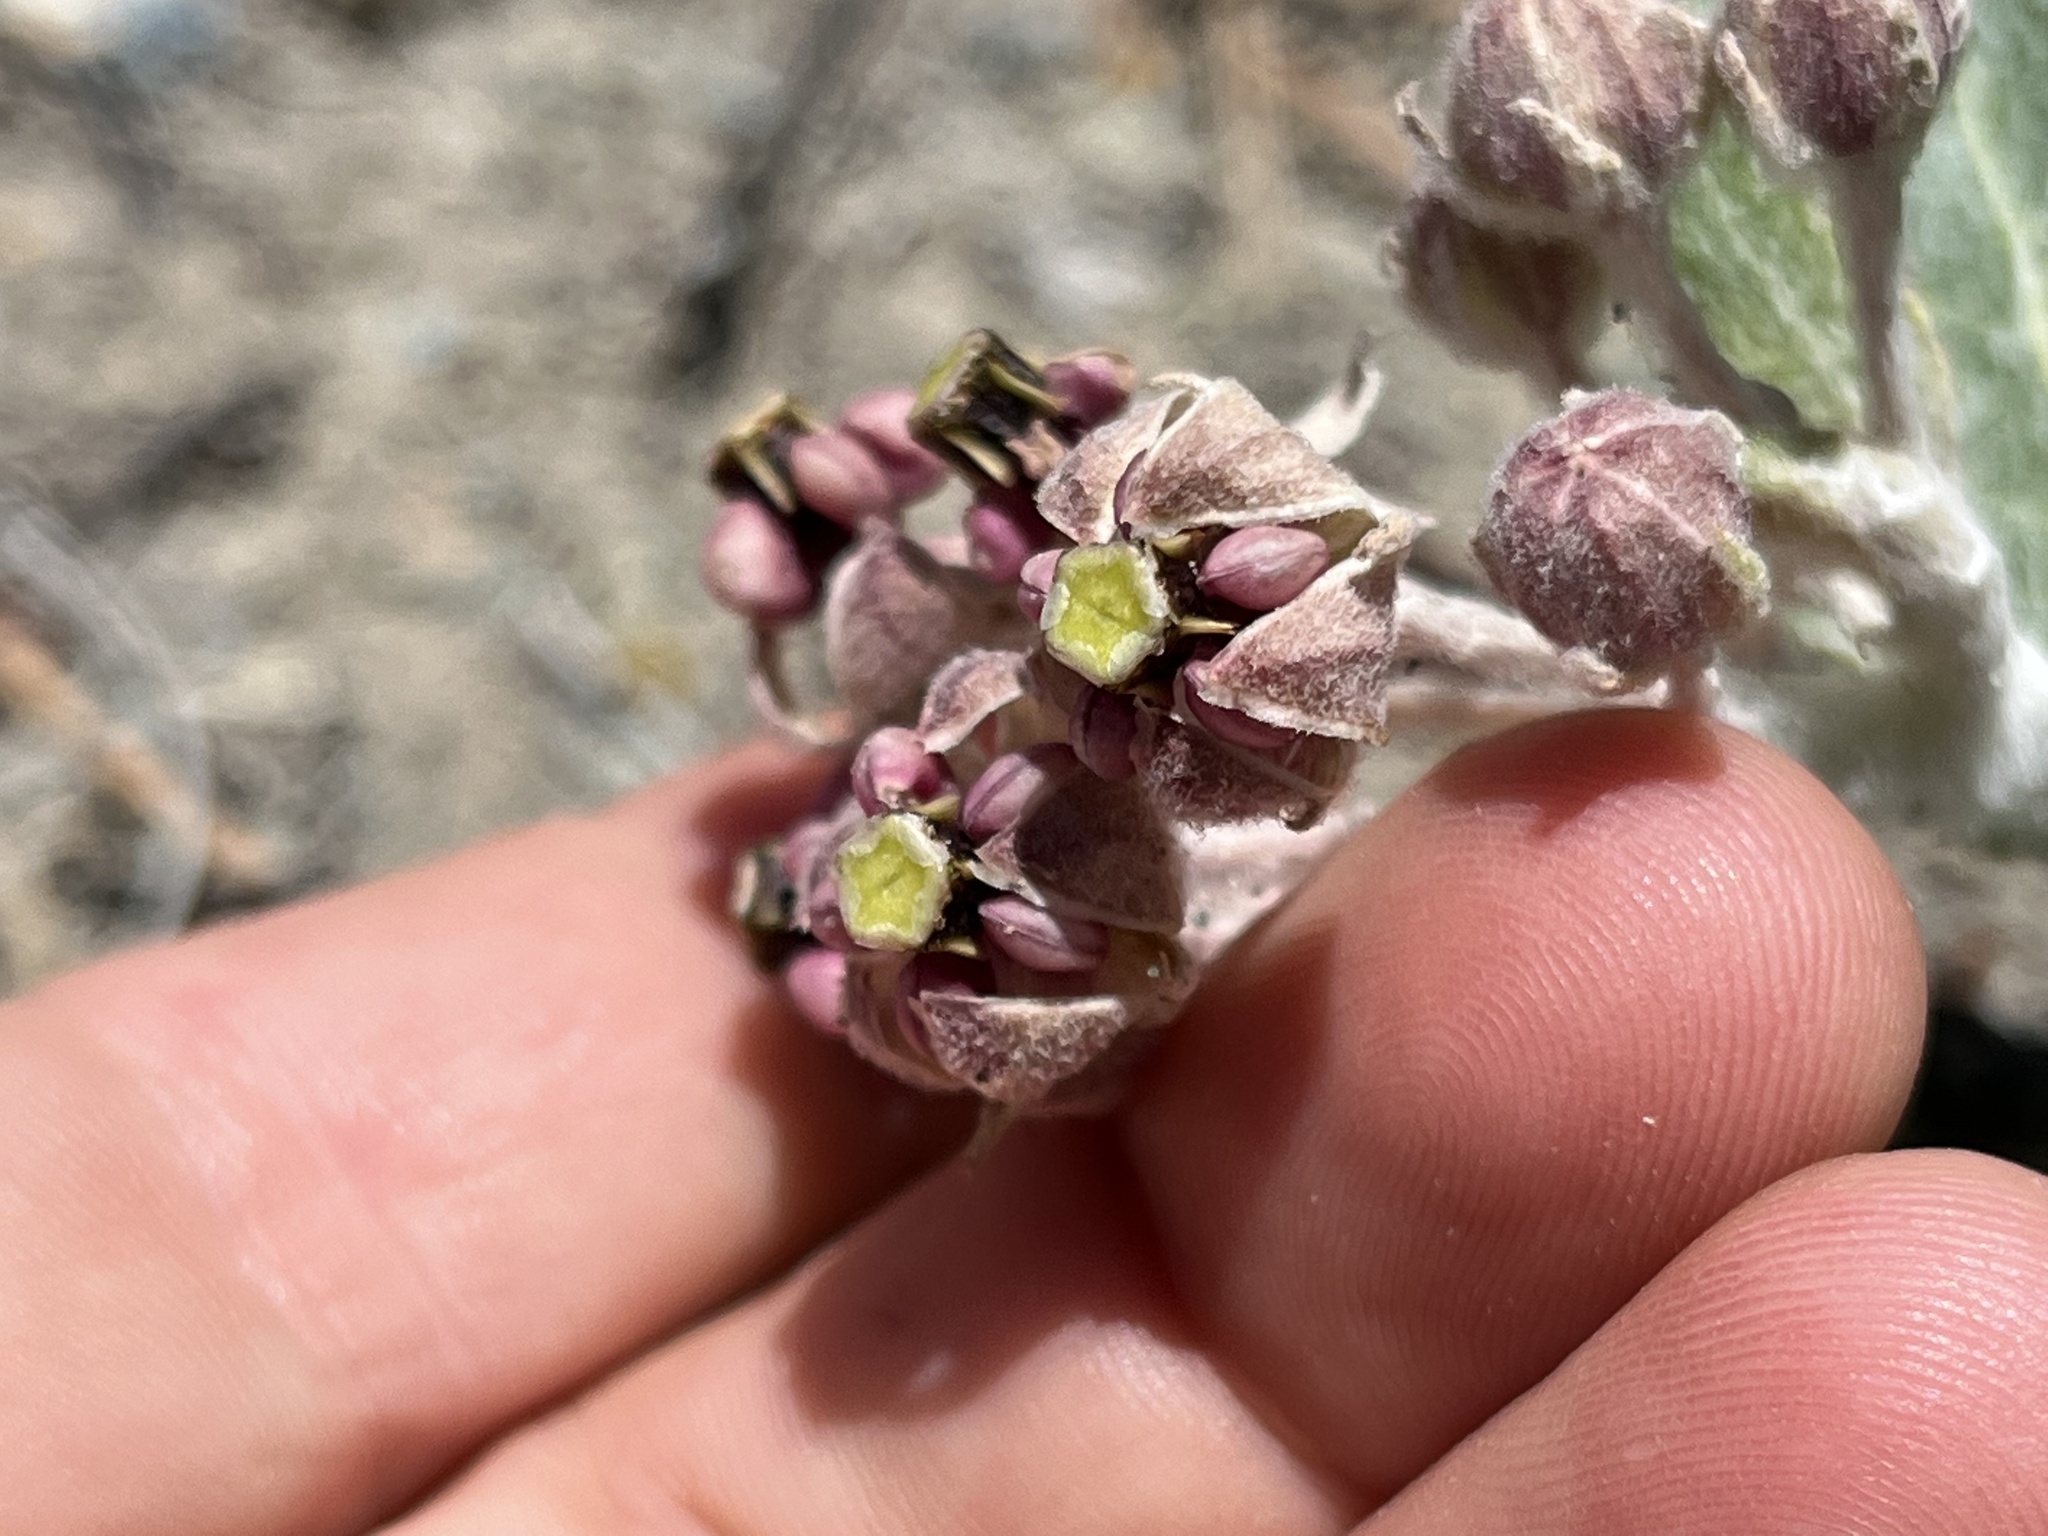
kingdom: Plantae
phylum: Tracheophyta
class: Magnoliopsida
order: Gentianales
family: Apocynaceae
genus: Asclepias
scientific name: Asclepias californica
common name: California milkweed
